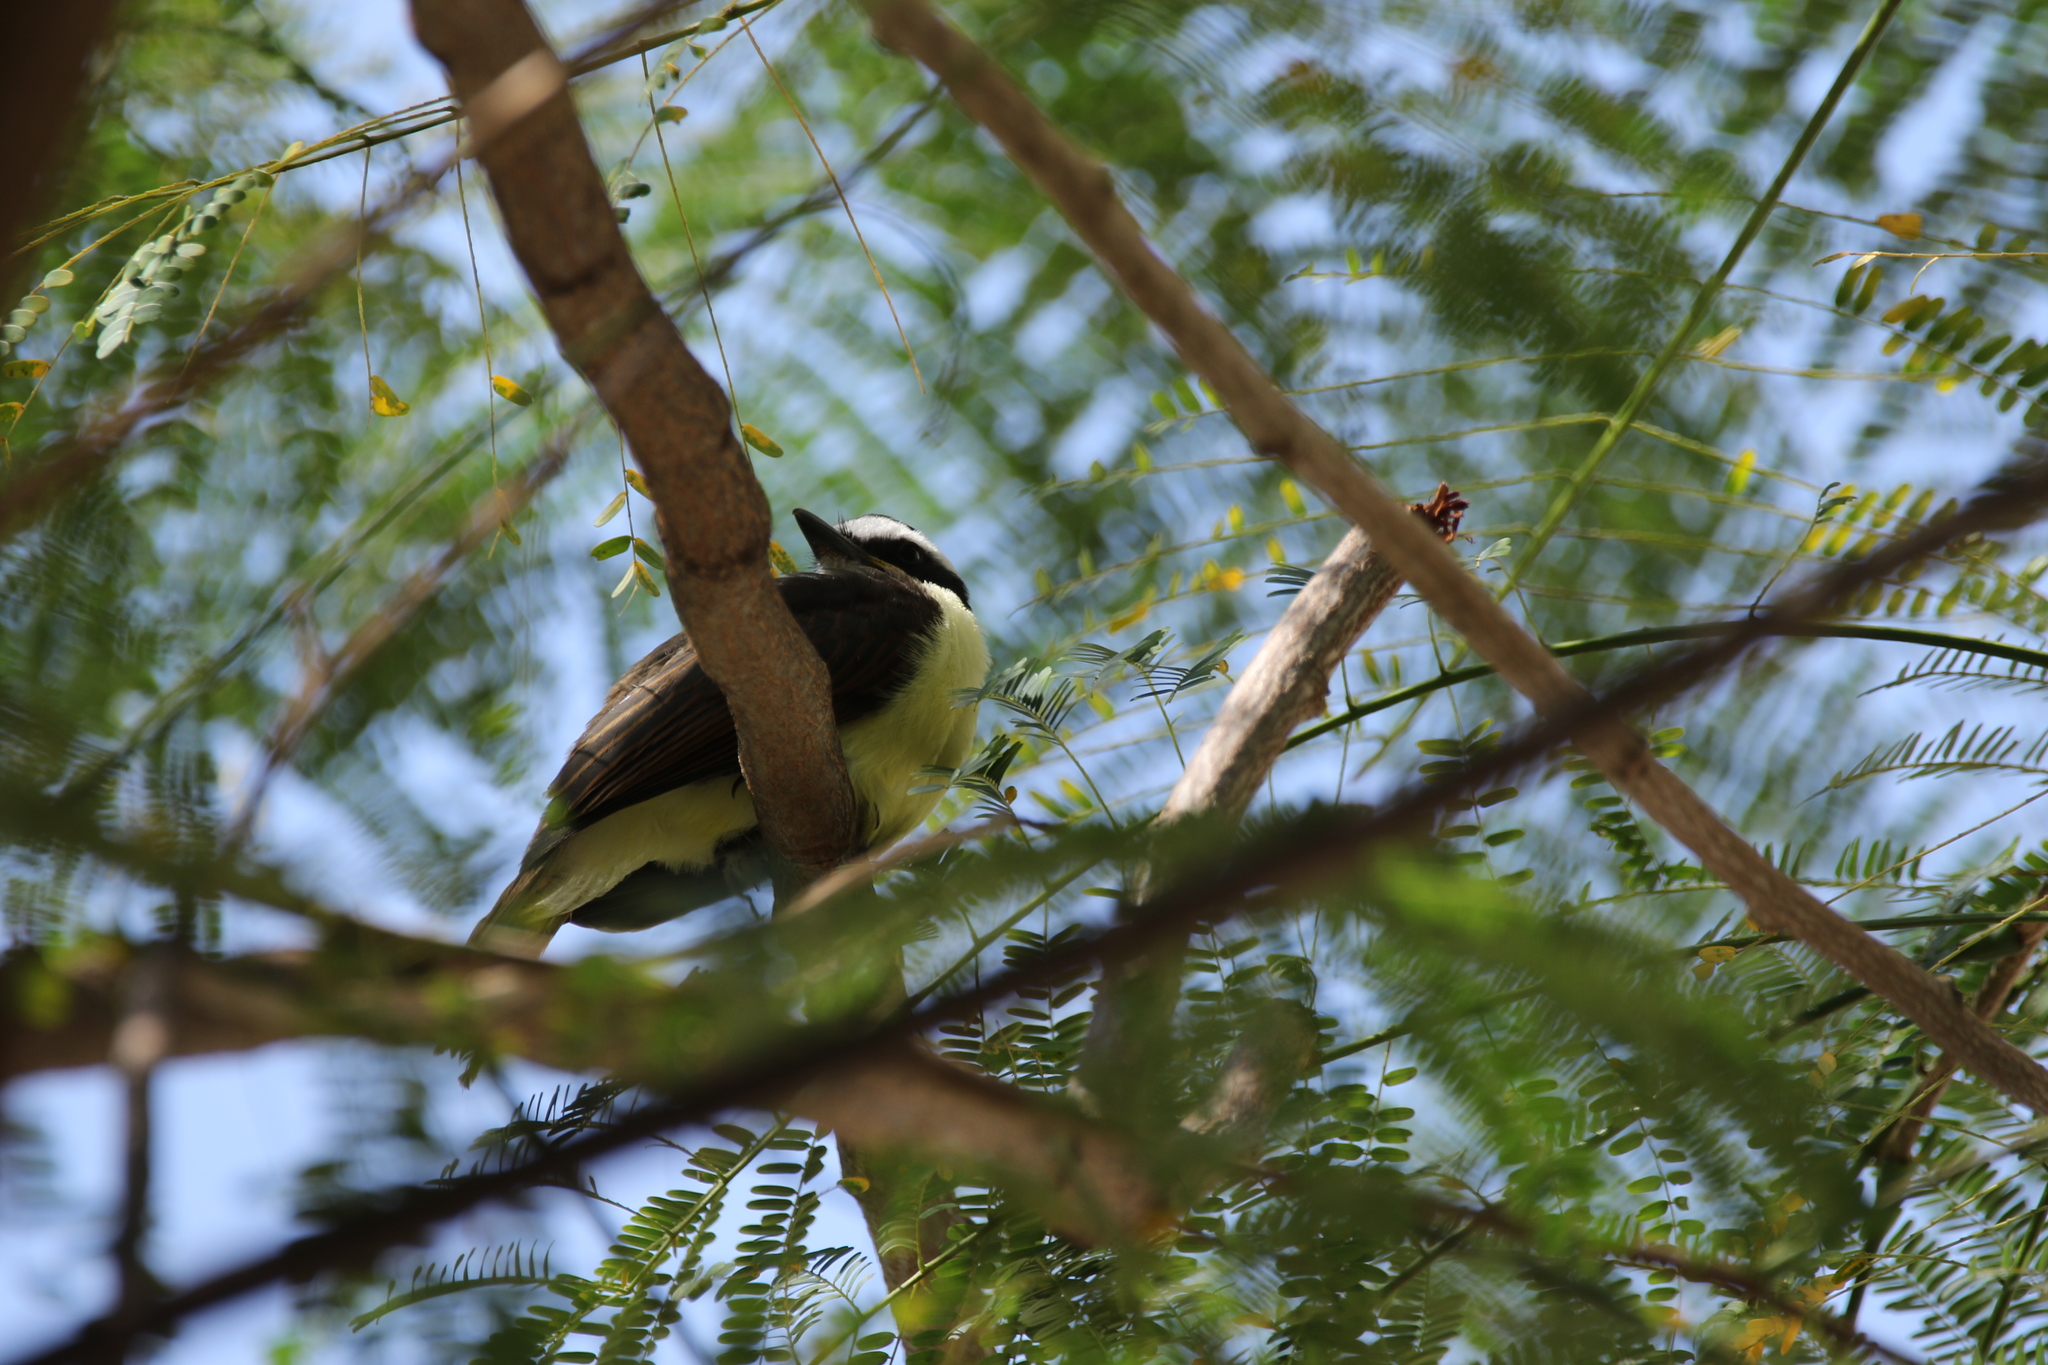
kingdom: Animalia
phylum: Chordata
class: Aves
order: Passeriformes
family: Tyrannidae
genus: Pitangus
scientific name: Pitangus sulphuratus
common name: Great kiskadee
